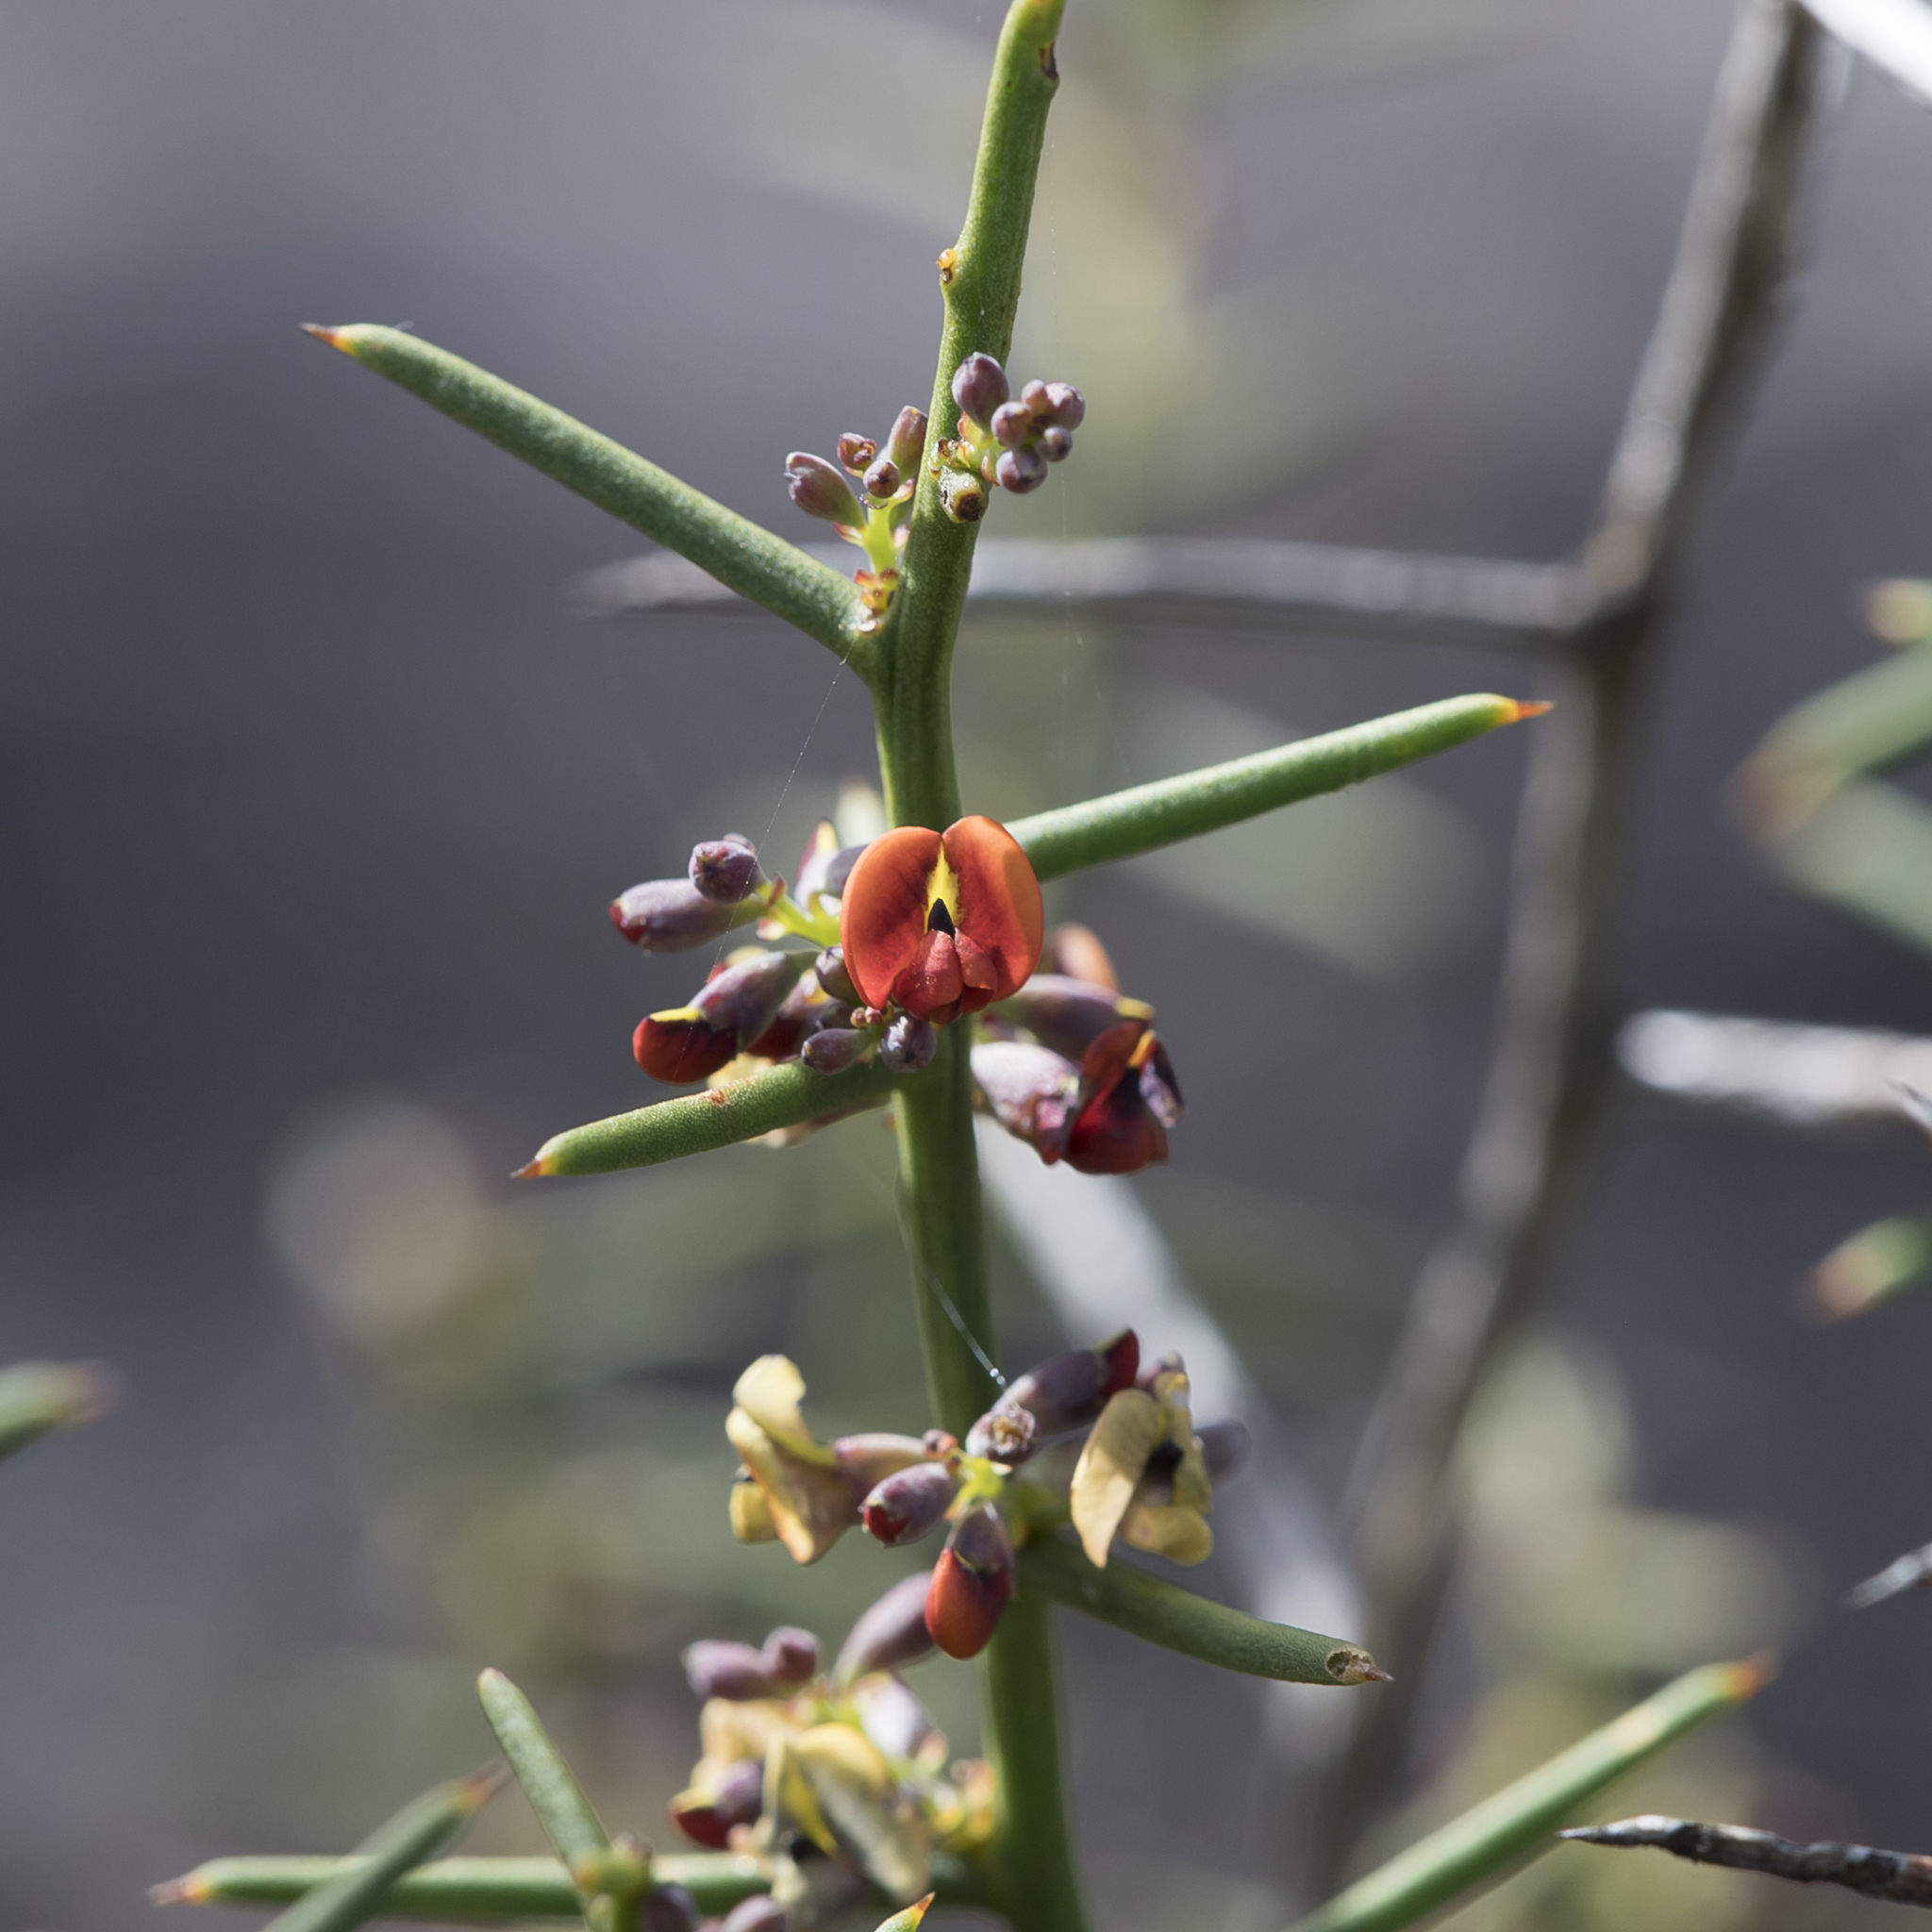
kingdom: Plantae
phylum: Tracheophyta
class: Magnoliopsida
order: Fabales
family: Fabaceae
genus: Daviesia
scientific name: Daviesia devito
